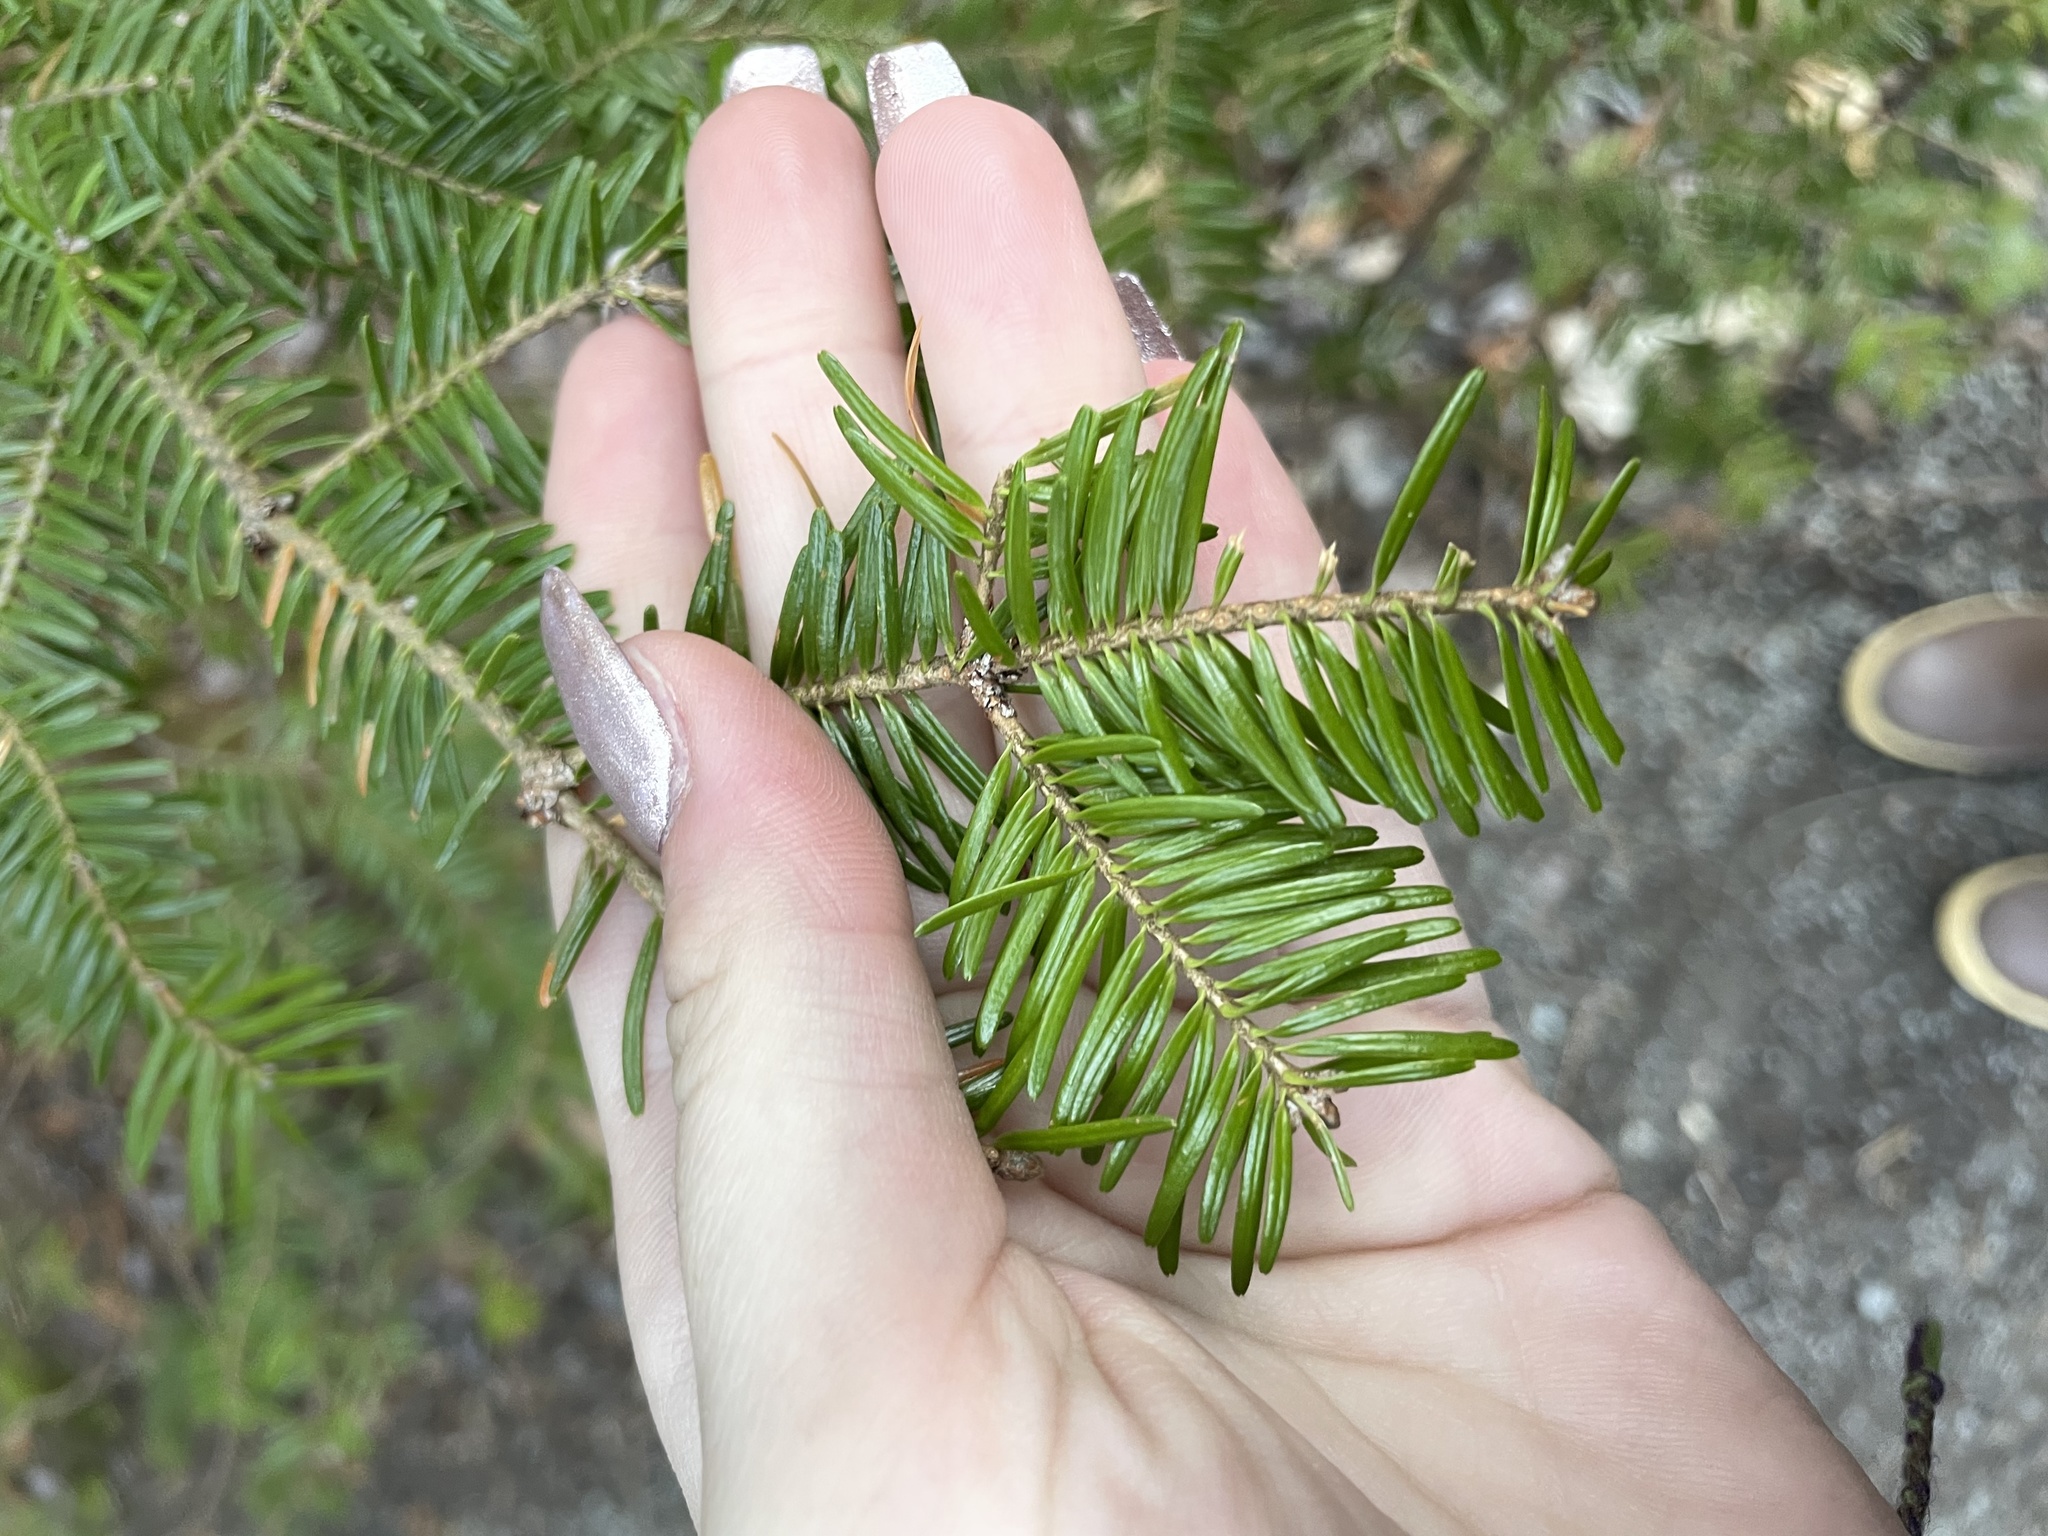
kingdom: Plantae
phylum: Tracheophyta
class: Pinopsida
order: Pinales
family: Pinaceae
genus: Abies
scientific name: Abies balsamea
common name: Balsam fir
